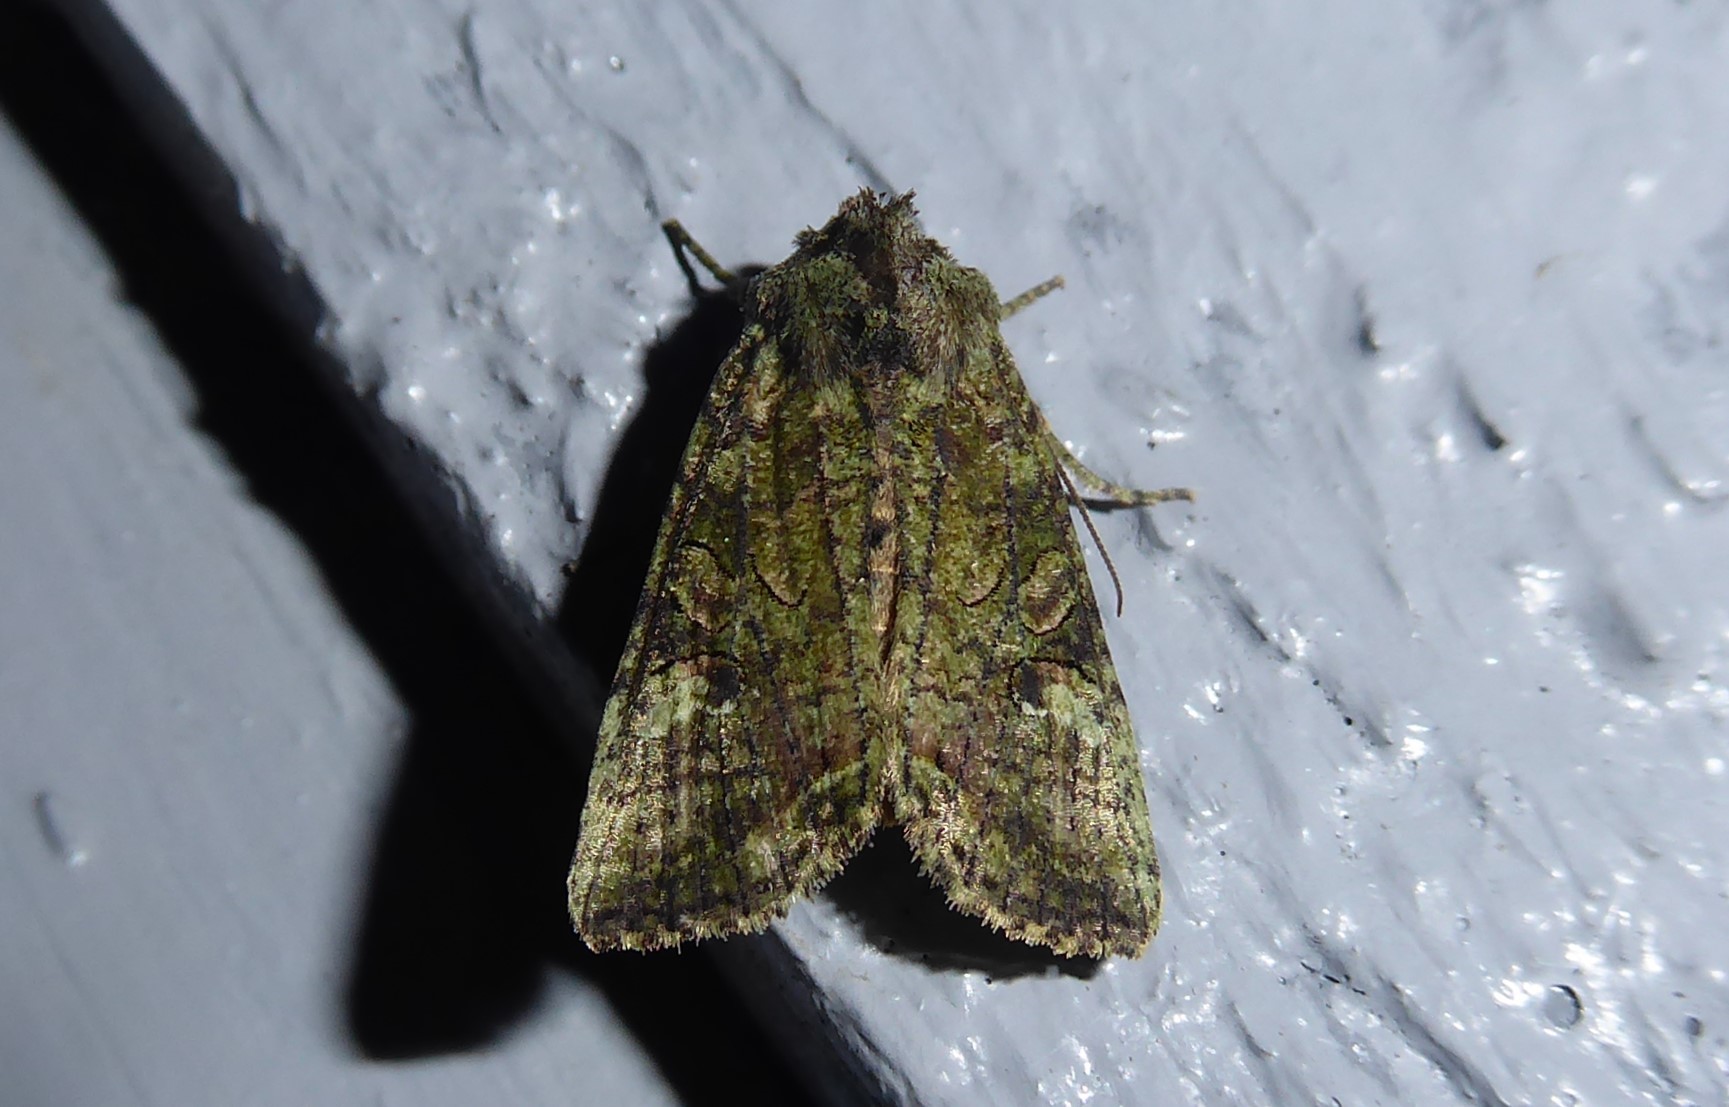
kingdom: Animalia
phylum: Arthropoda
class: Insecta
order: Lepidoptera
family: Noctuidae
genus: Meterana
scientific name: Meterana levis
